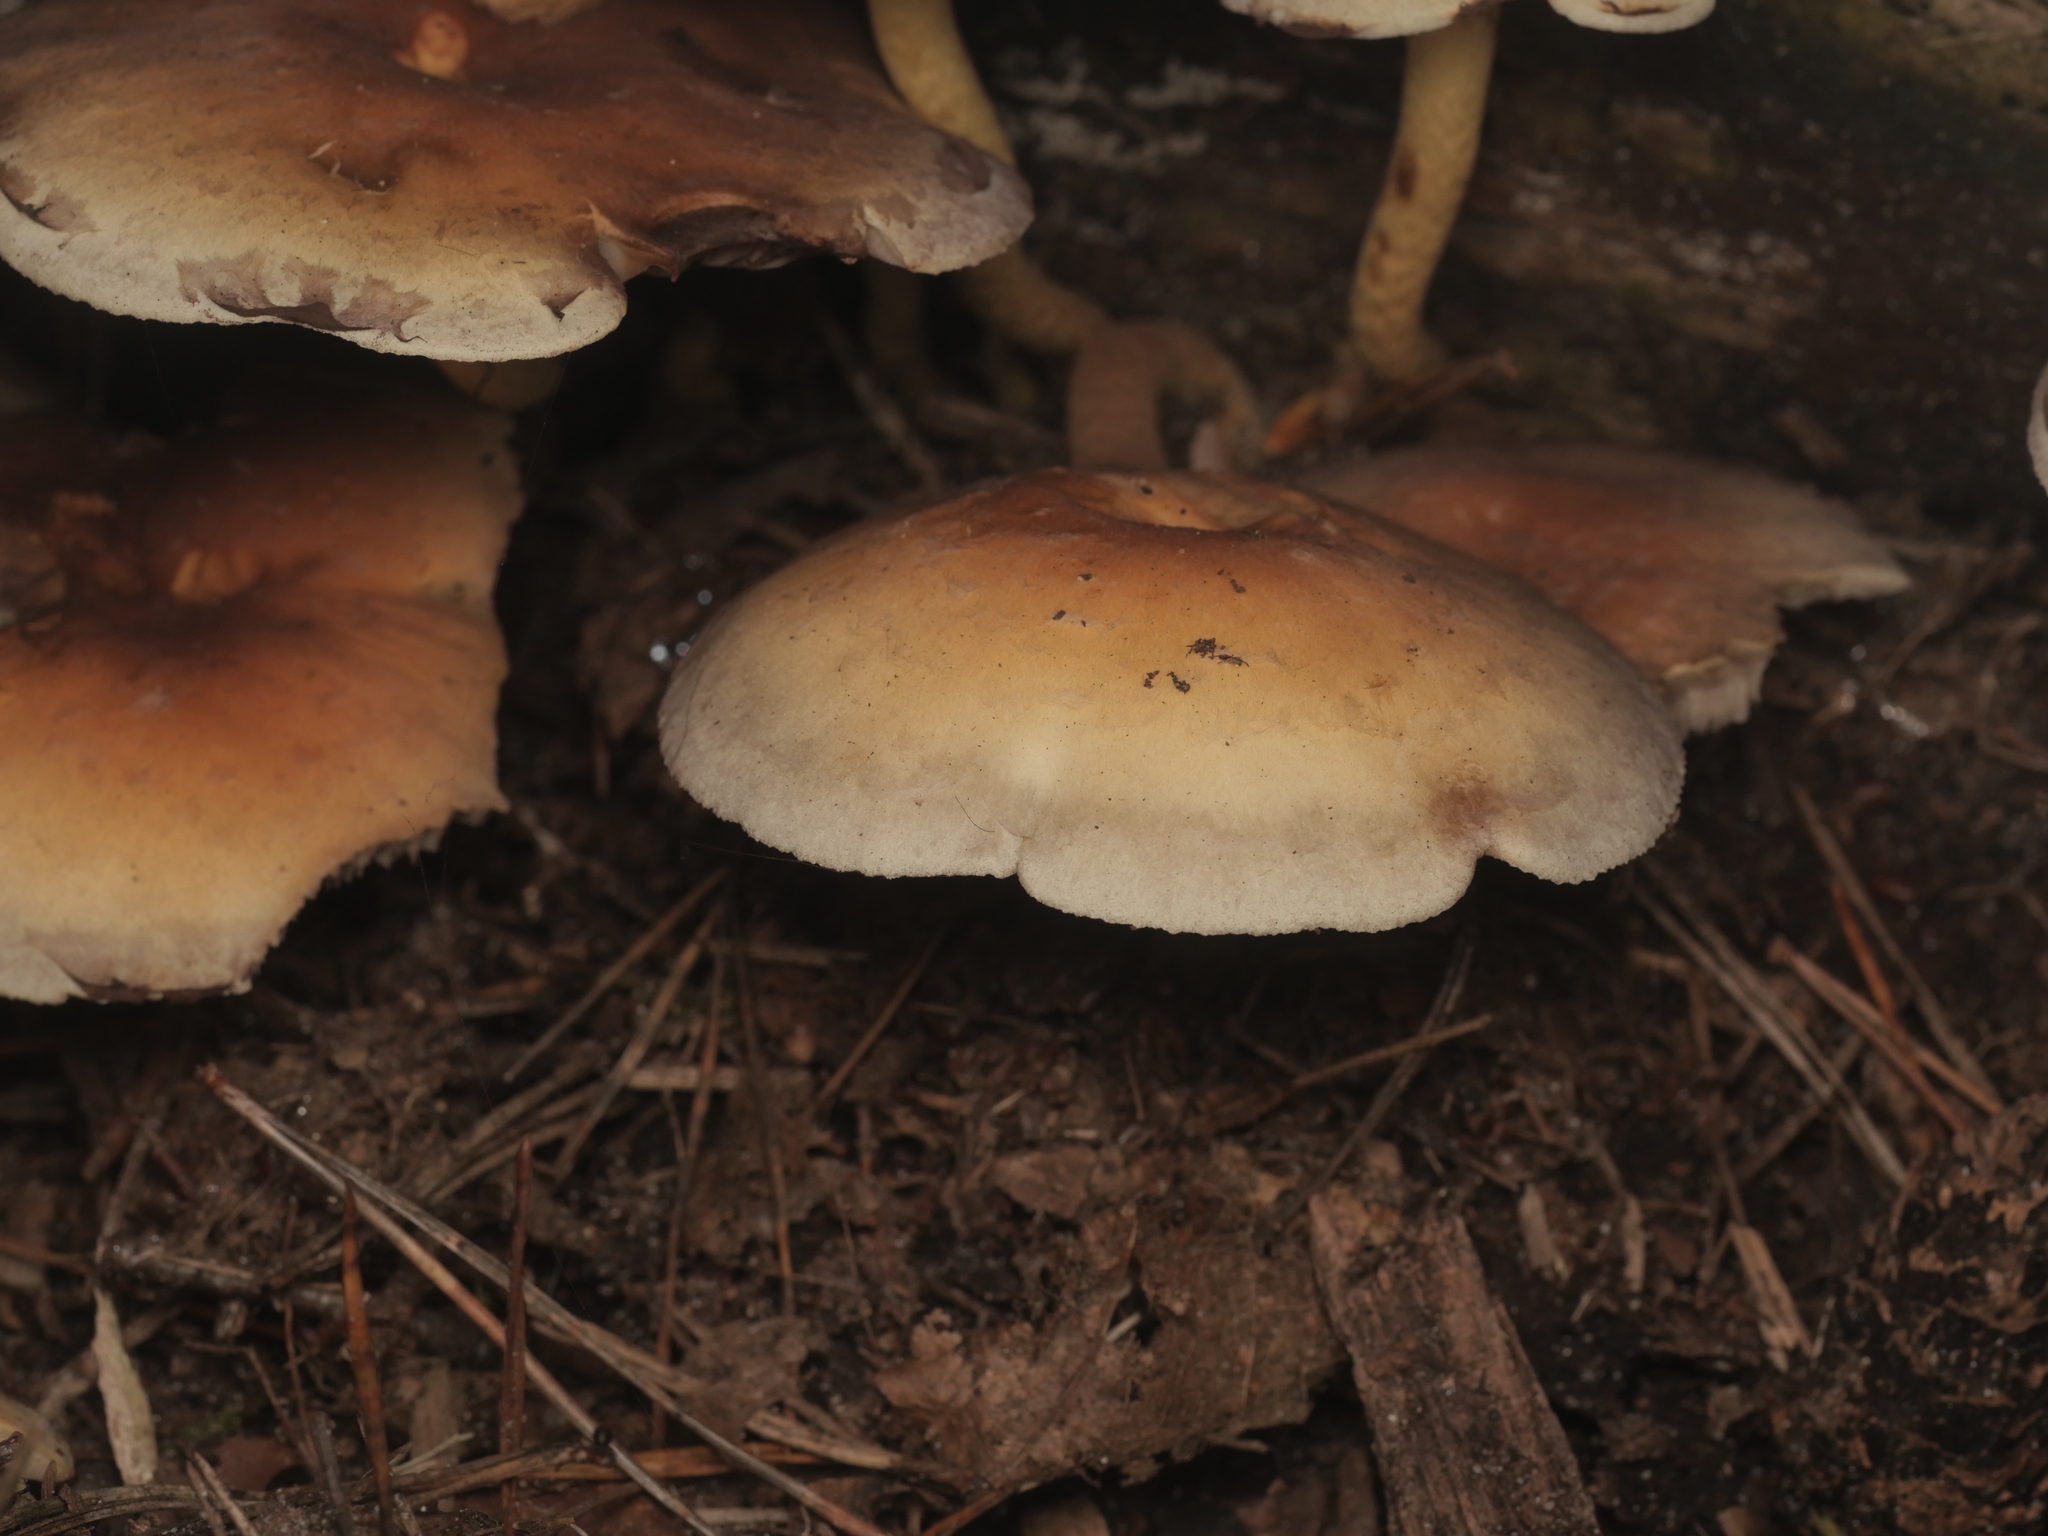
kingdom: Fungi
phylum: Basidiomycota
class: Agaricomycetes
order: Agaricales
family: Strophariaceae
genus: Hypholoma
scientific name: Hypholoma capnoides
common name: Conifer tuft
